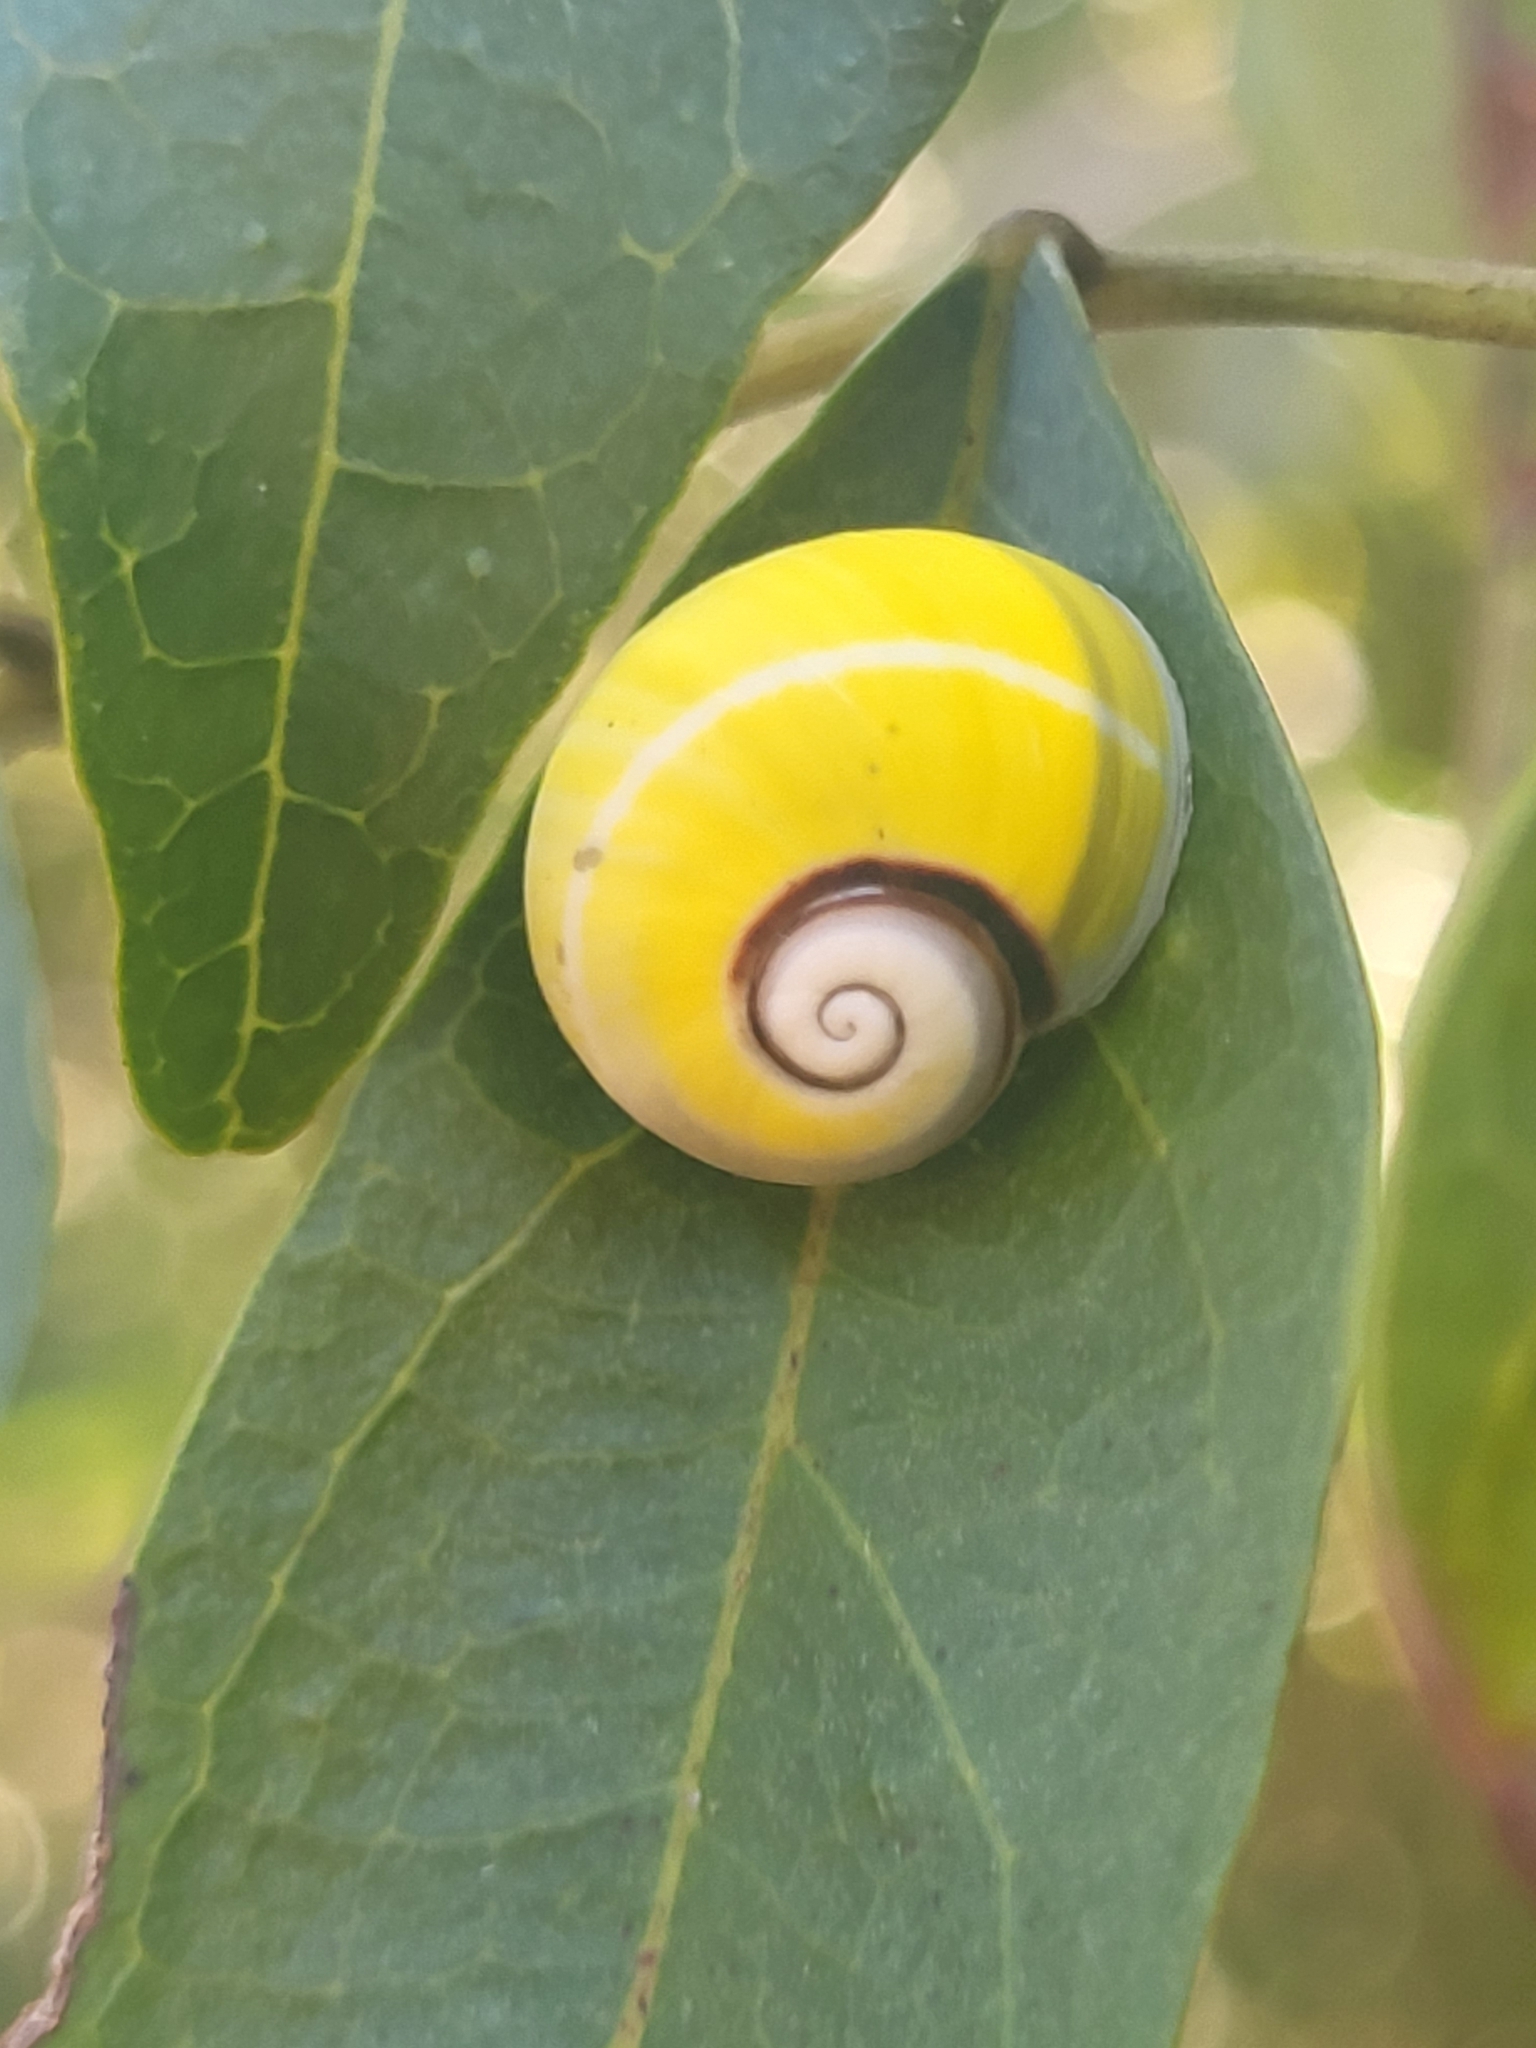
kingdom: Animalia
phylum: Mollusca
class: Gastropoda
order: Stylommatophora
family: Cepolidae
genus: Polymita
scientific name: Polymita picta
